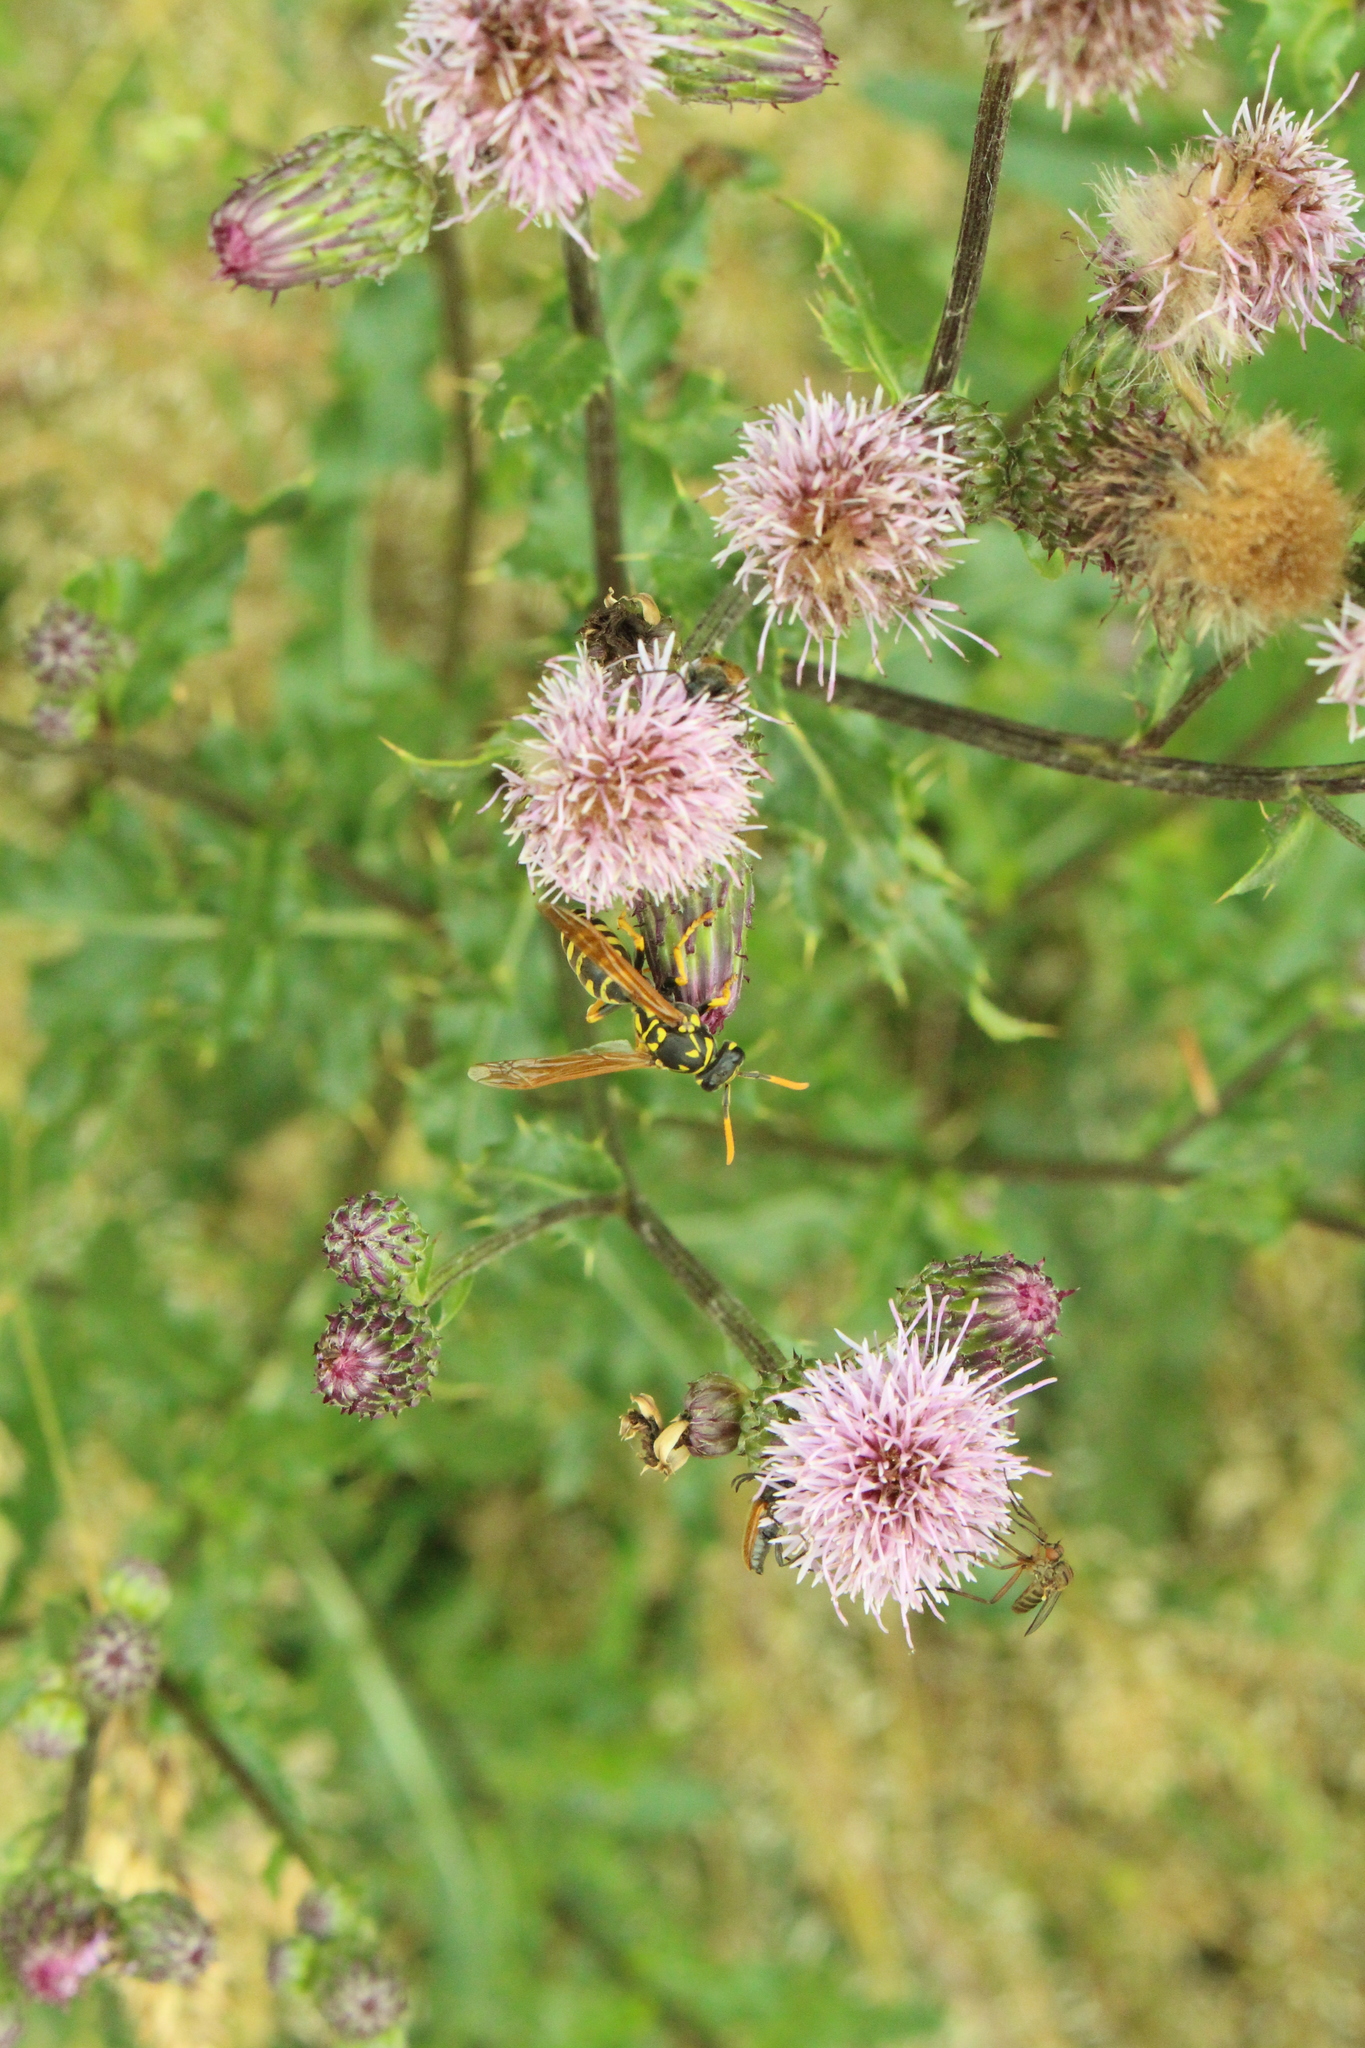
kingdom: Plantae
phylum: Tracheophyta
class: Magnoliopsida
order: Asterales
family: Asteraceae
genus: Cirsium
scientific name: Cirsium arvense
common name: Creeping thistle
